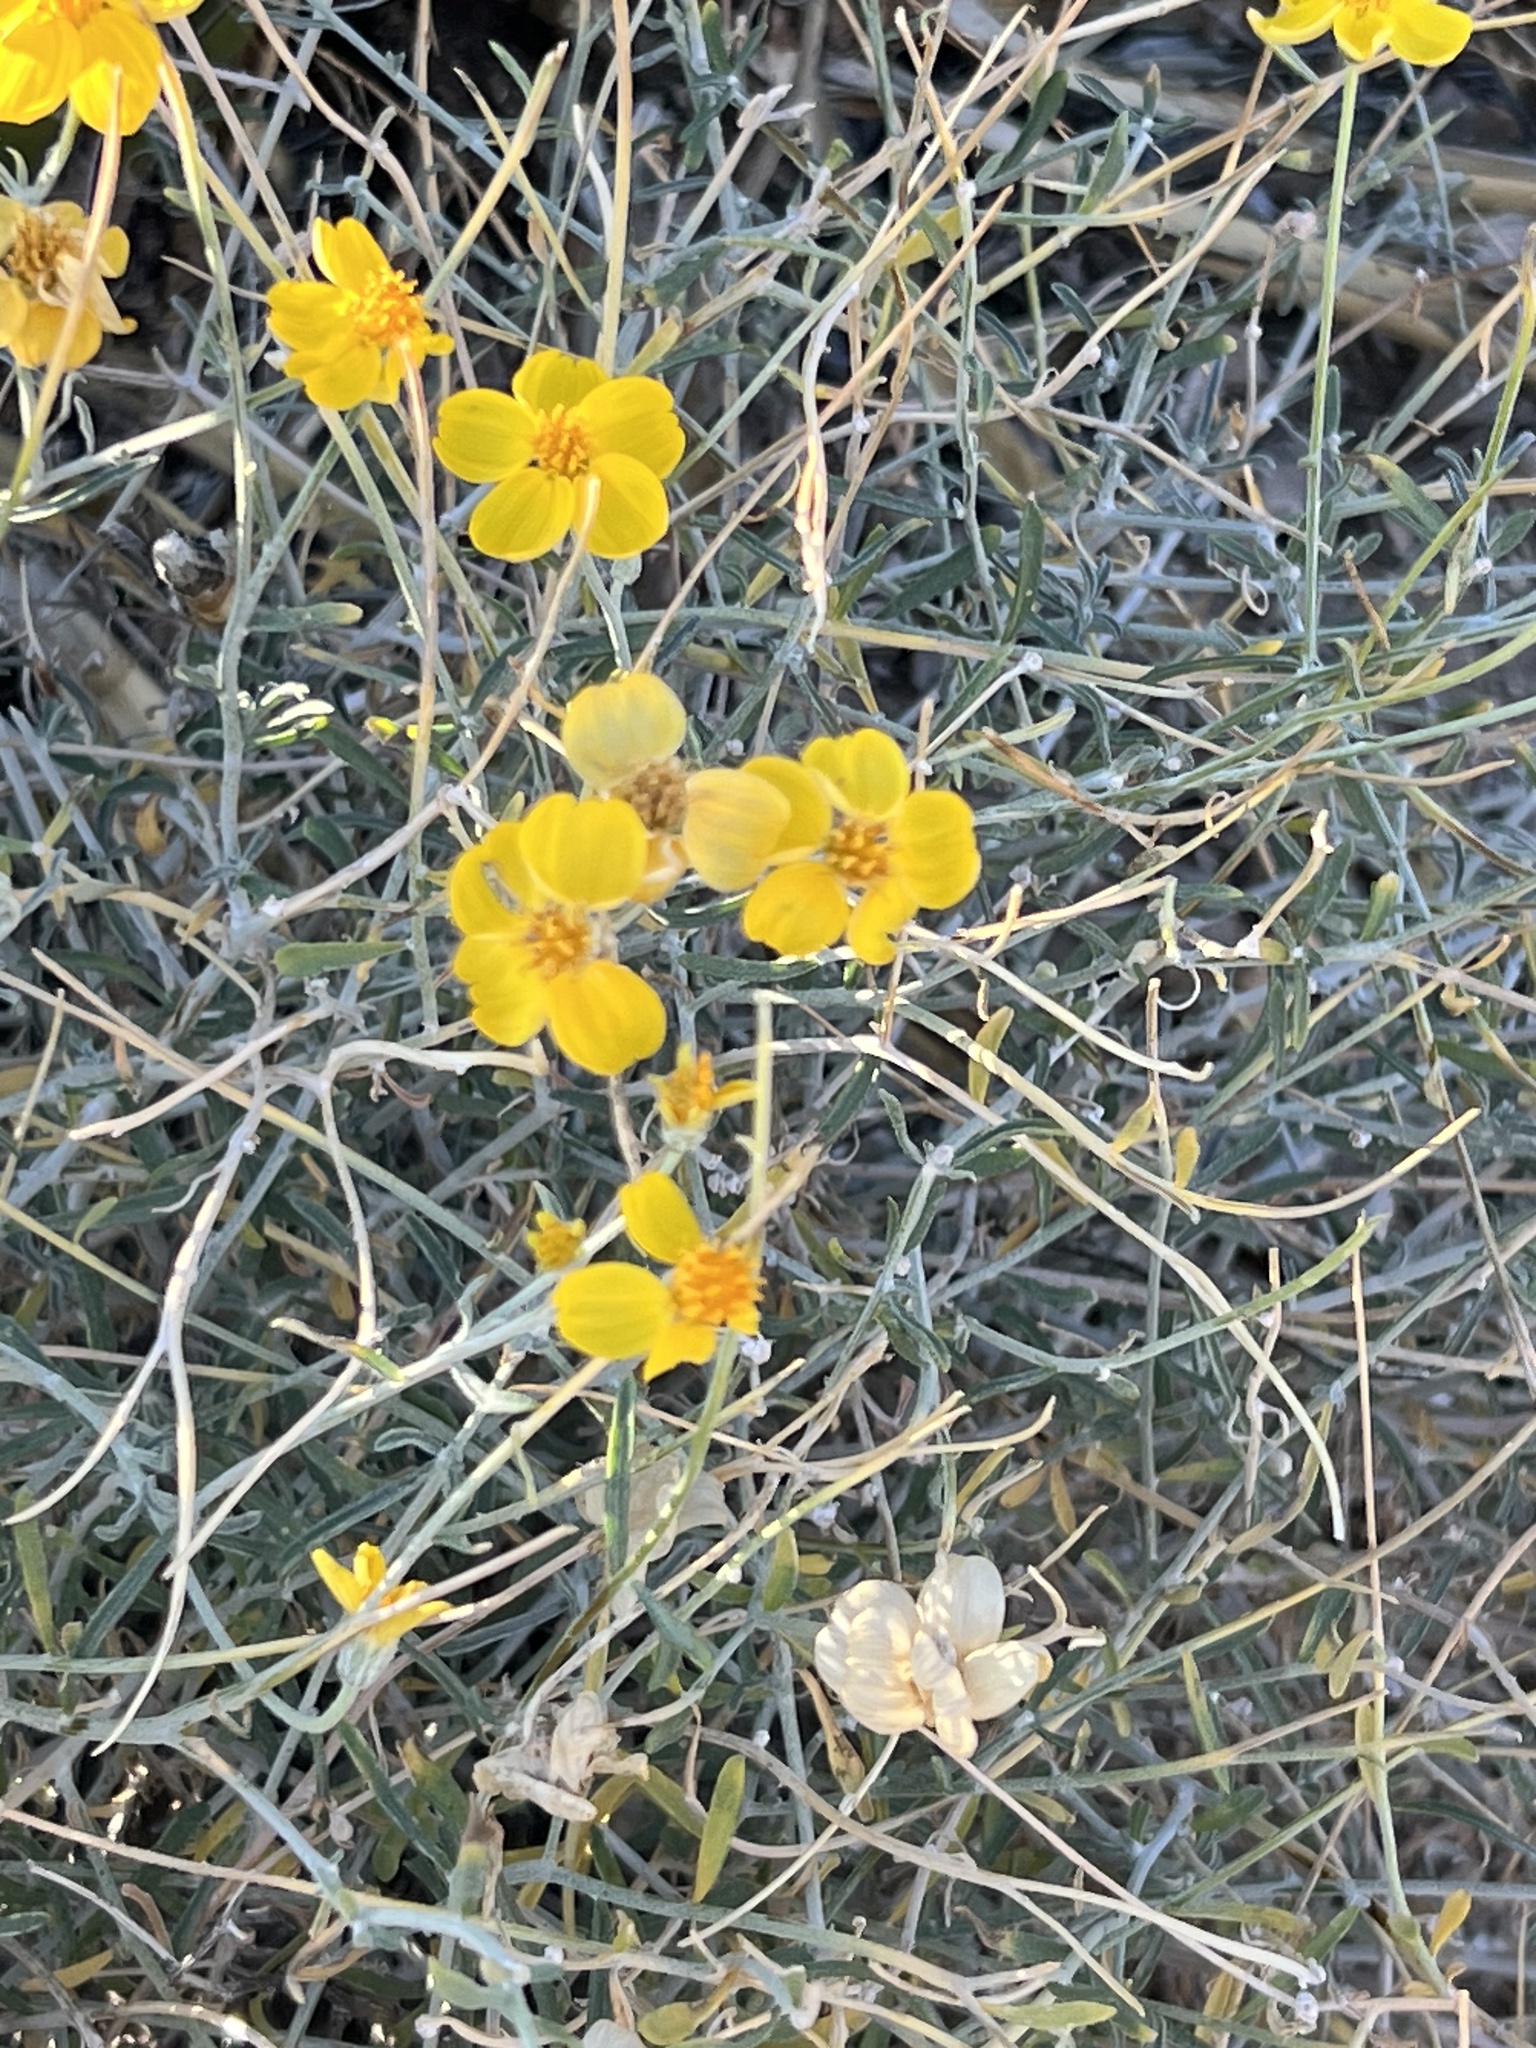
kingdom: Plantae
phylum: Tracheophyta
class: Magnoliopsida
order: Asterales
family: Asteraceae
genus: Psilostrophe
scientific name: Psilostrophe cooperi
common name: White-stem paper-flower
